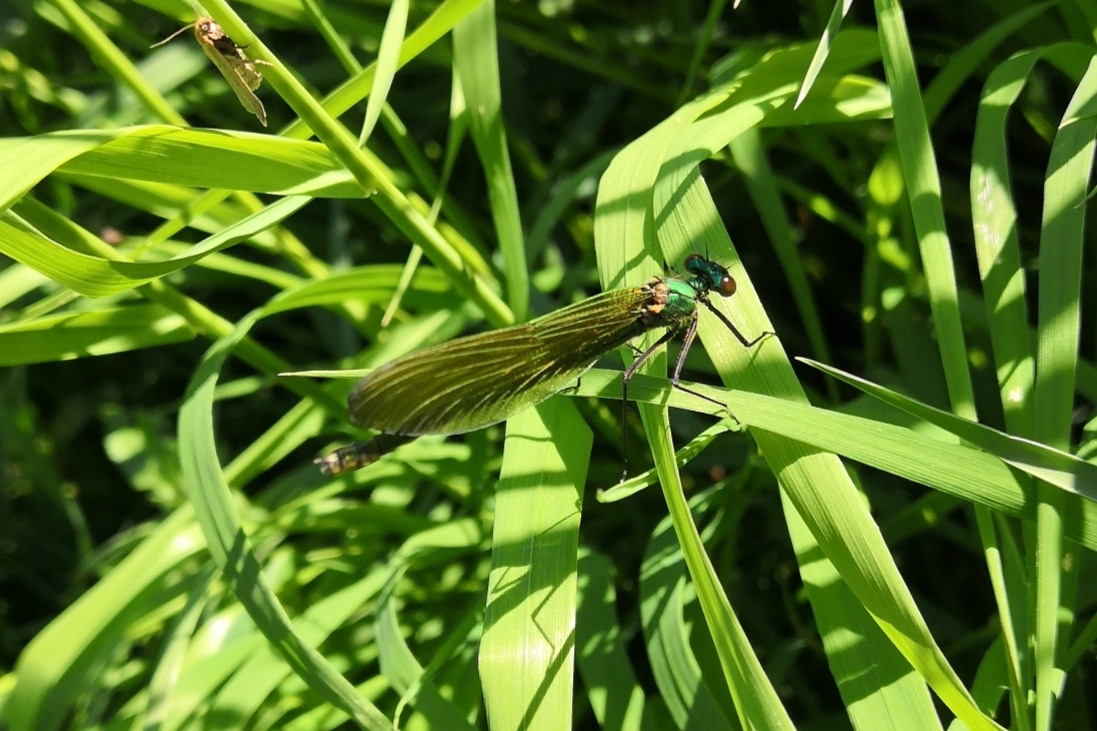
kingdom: Animalia
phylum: Arthropoda
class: Insecta
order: Odonata
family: Calopterygidae
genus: Calopteryx
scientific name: Calopteryx splendens
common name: Banded demoiselle
